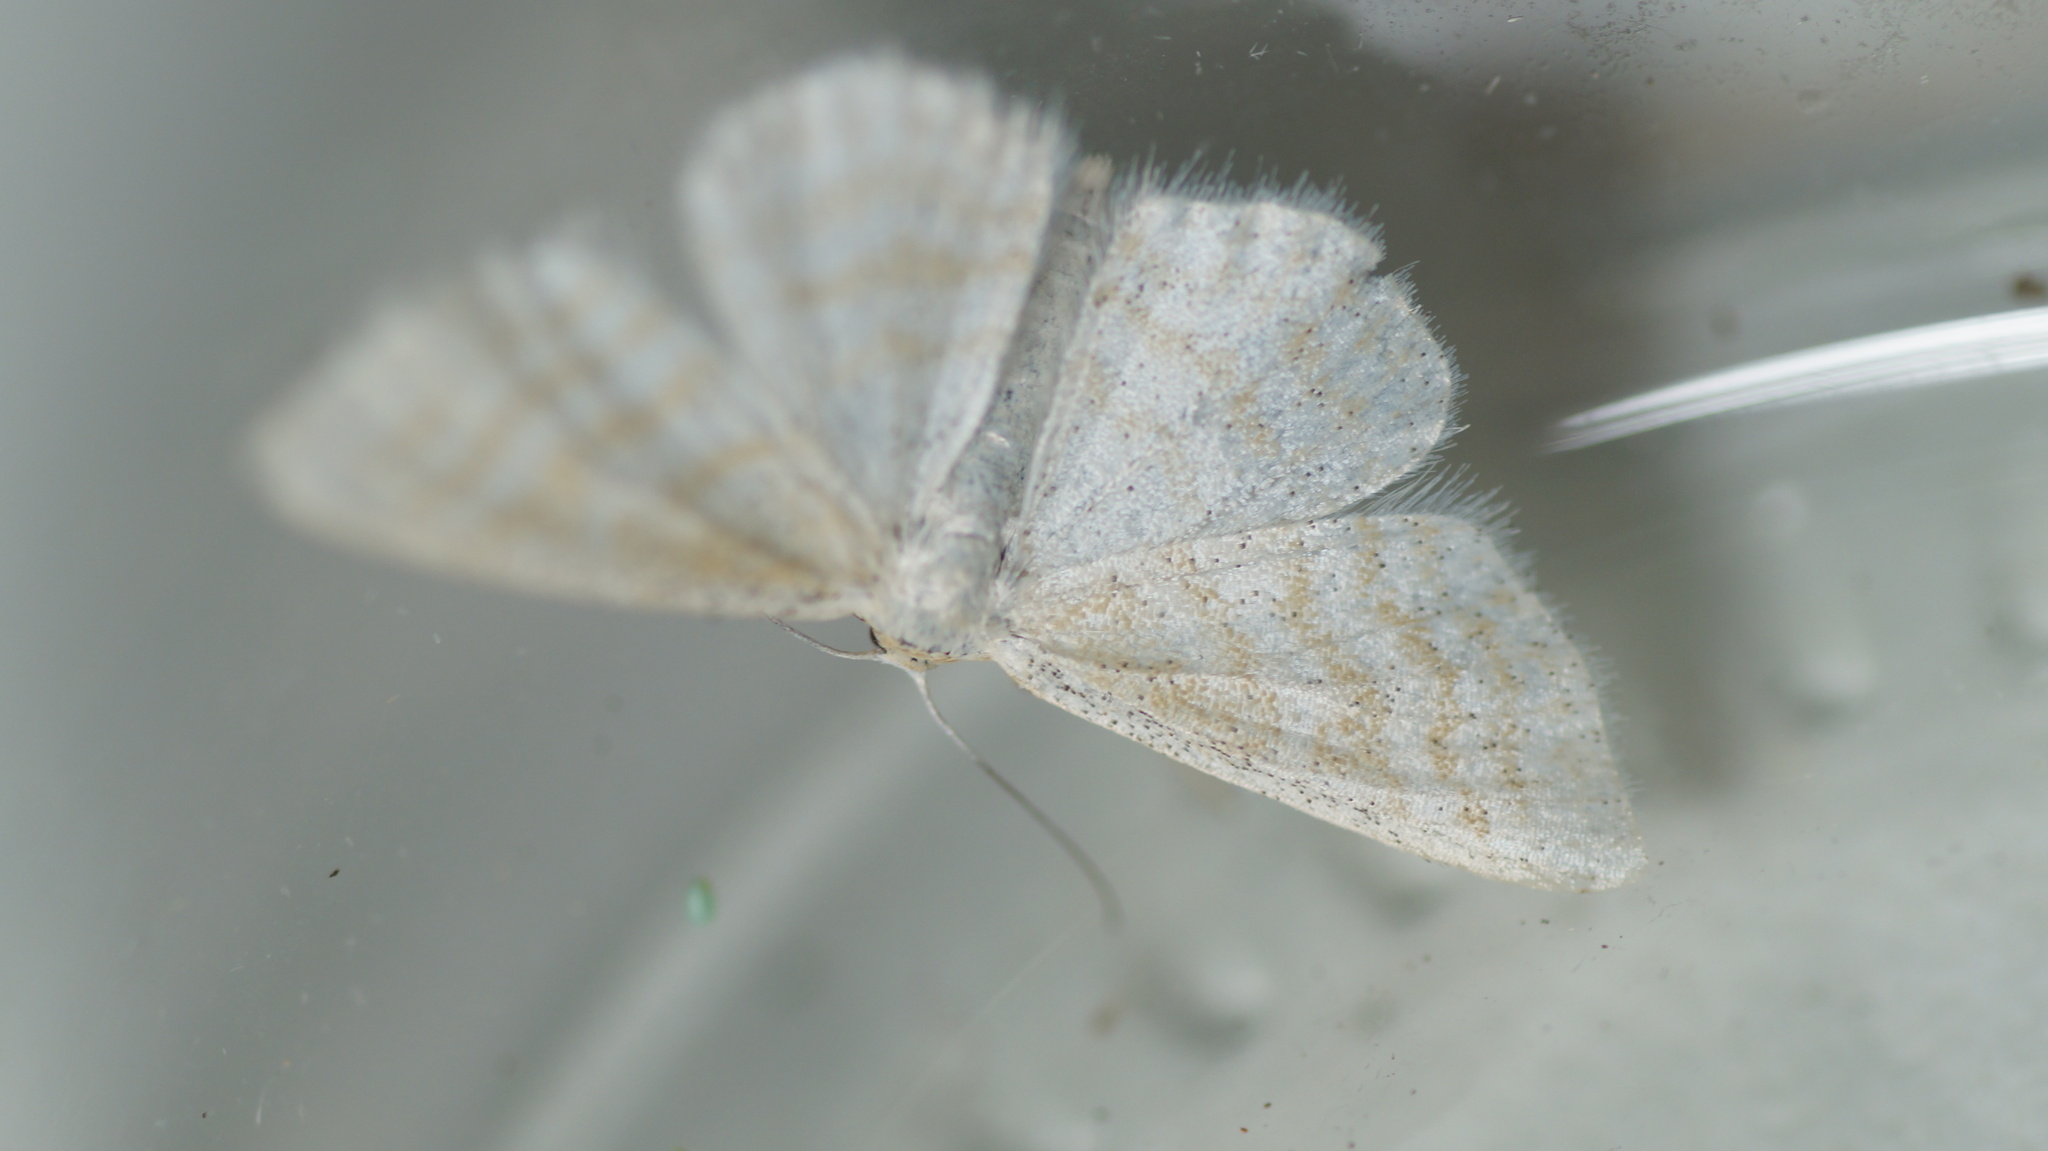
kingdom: Animalia
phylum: Arthropoda
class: Insecta
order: Lepidoptera
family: Geometridae
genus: Idaea
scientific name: Idaea pallidata
